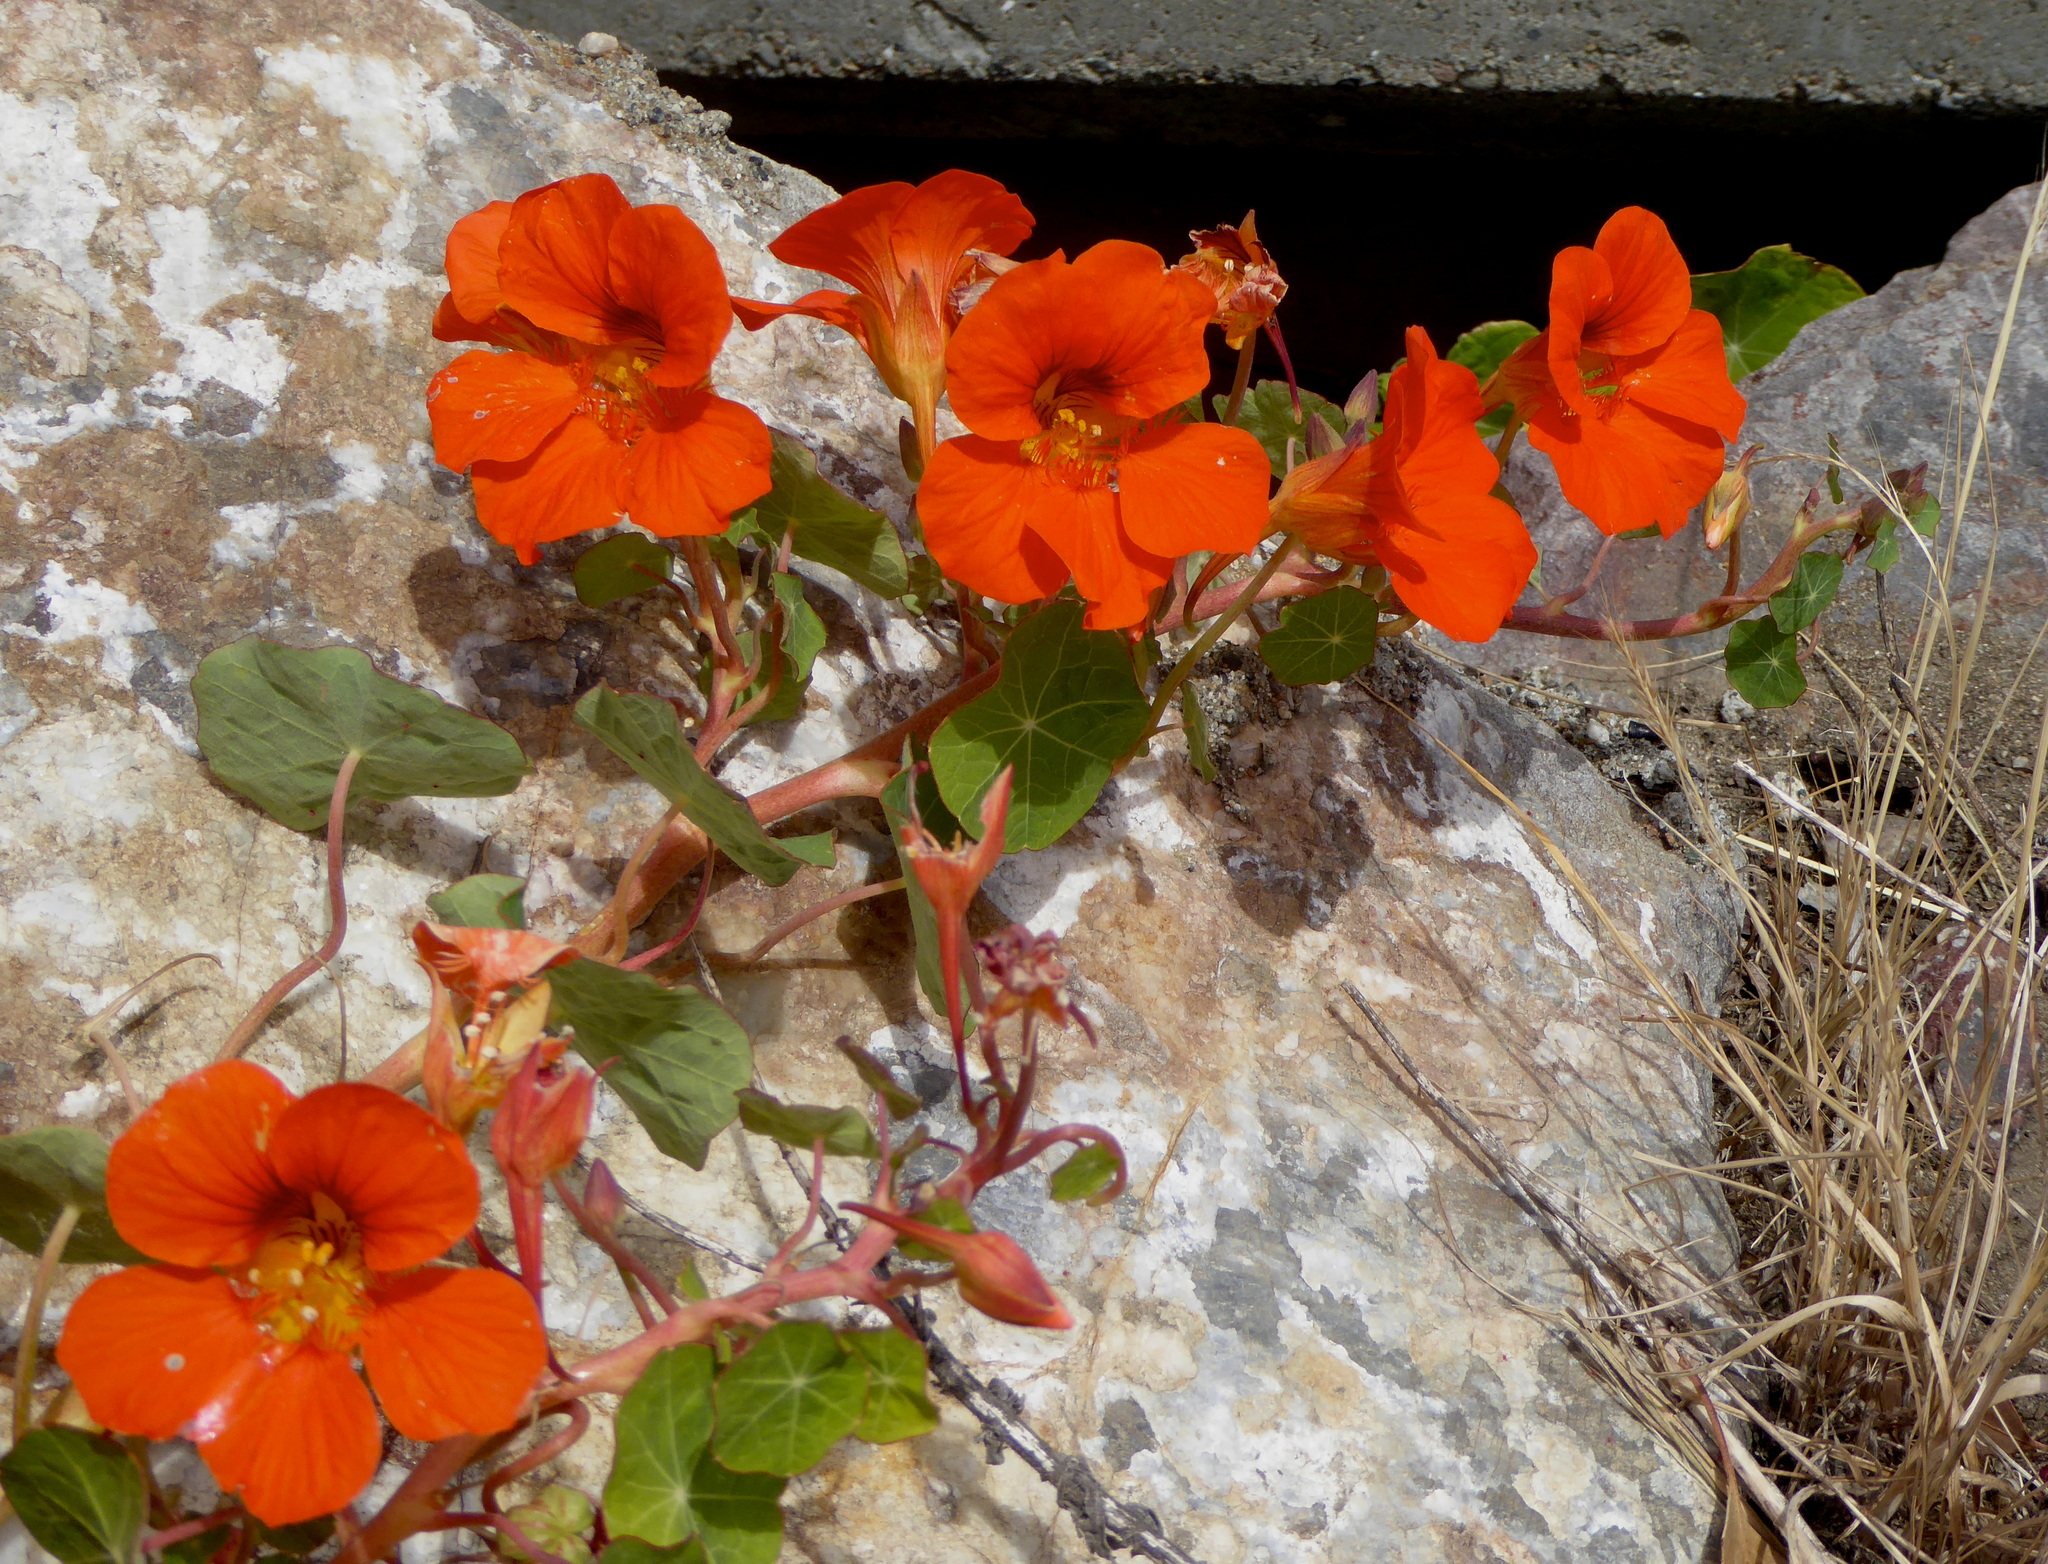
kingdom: Plantae
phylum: Tracheophyta
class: Magnoliopsida
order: Brassicales
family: Tropaeolaceae
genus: Tropaeolum
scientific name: Tropaeolum majus
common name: Nasturtium
